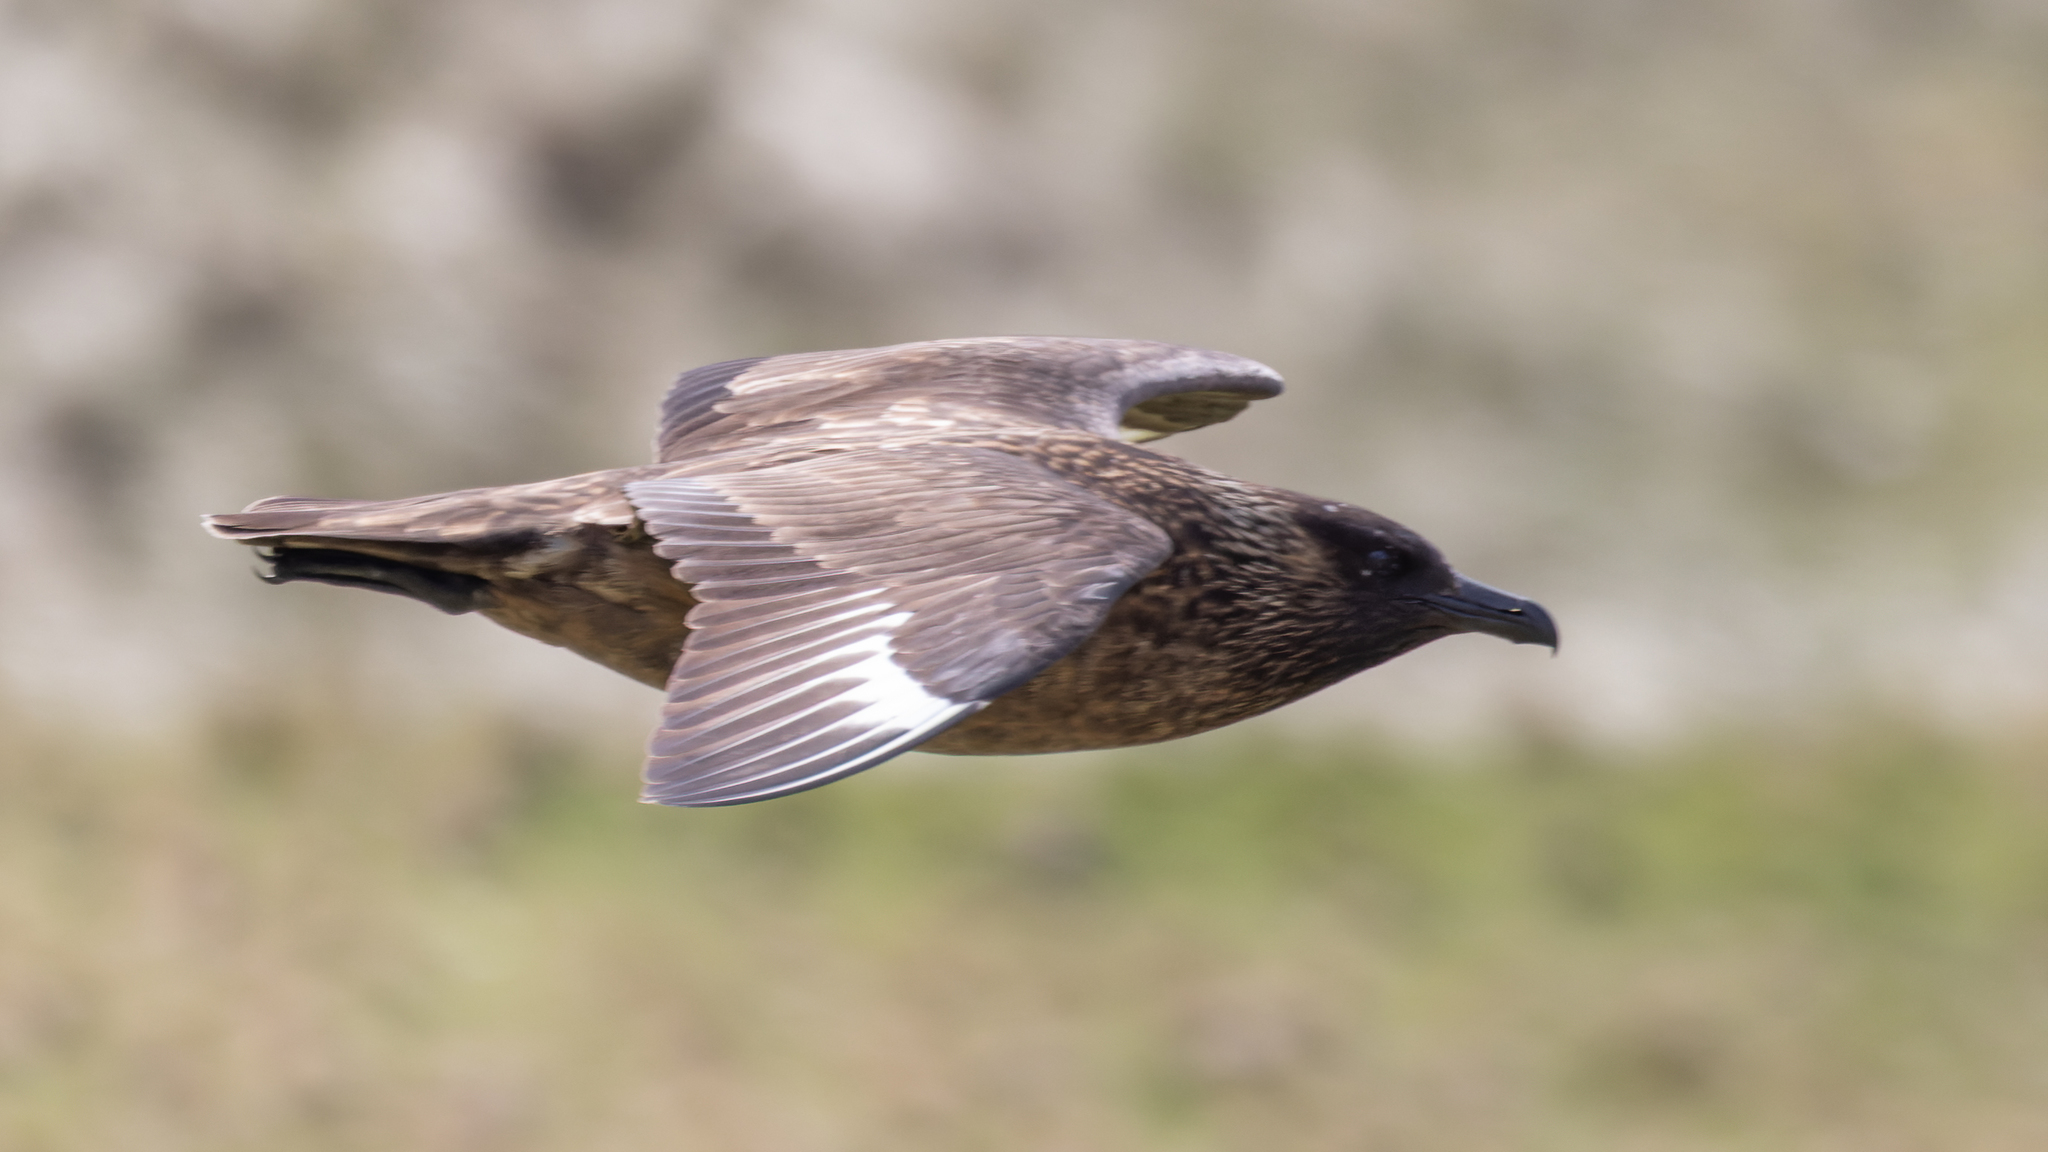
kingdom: Animalia
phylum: Chordata
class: Aves
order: Charadriiformes
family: Stercorariidae
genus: Stercorarius
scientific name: Stercorarius skua
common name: Great skua
